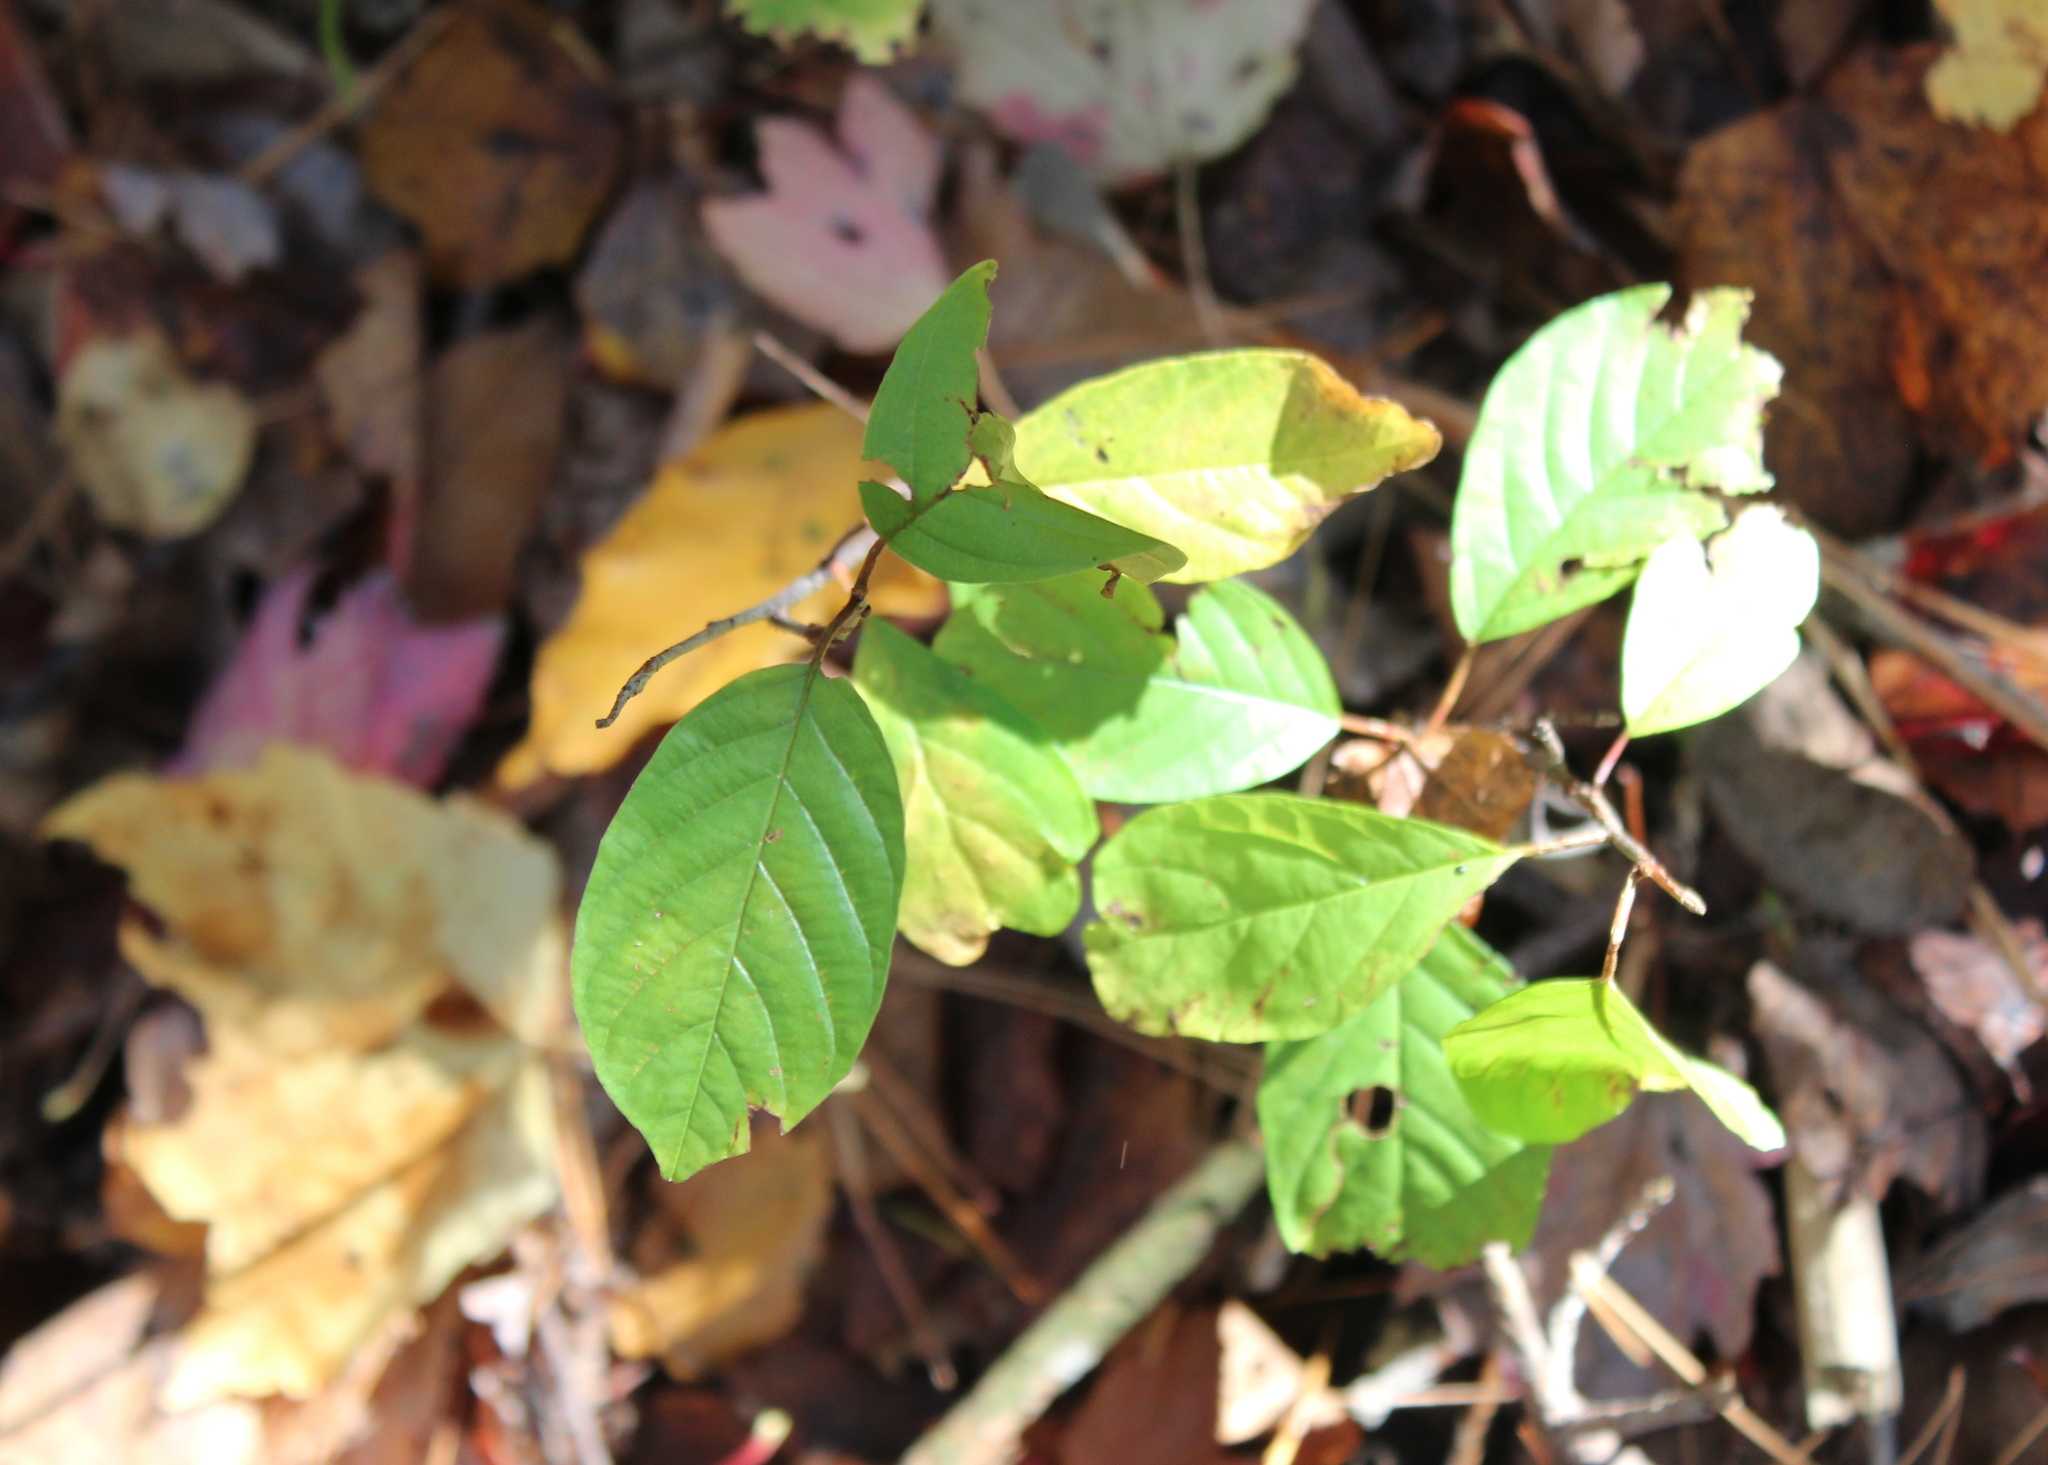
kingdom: Plantae
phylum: Tracheophyta
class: Magnoliopsida
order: Rosales
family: Rhamnaceae
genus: Frangula
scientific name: Frangula alnus
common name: Alder buckthorn
